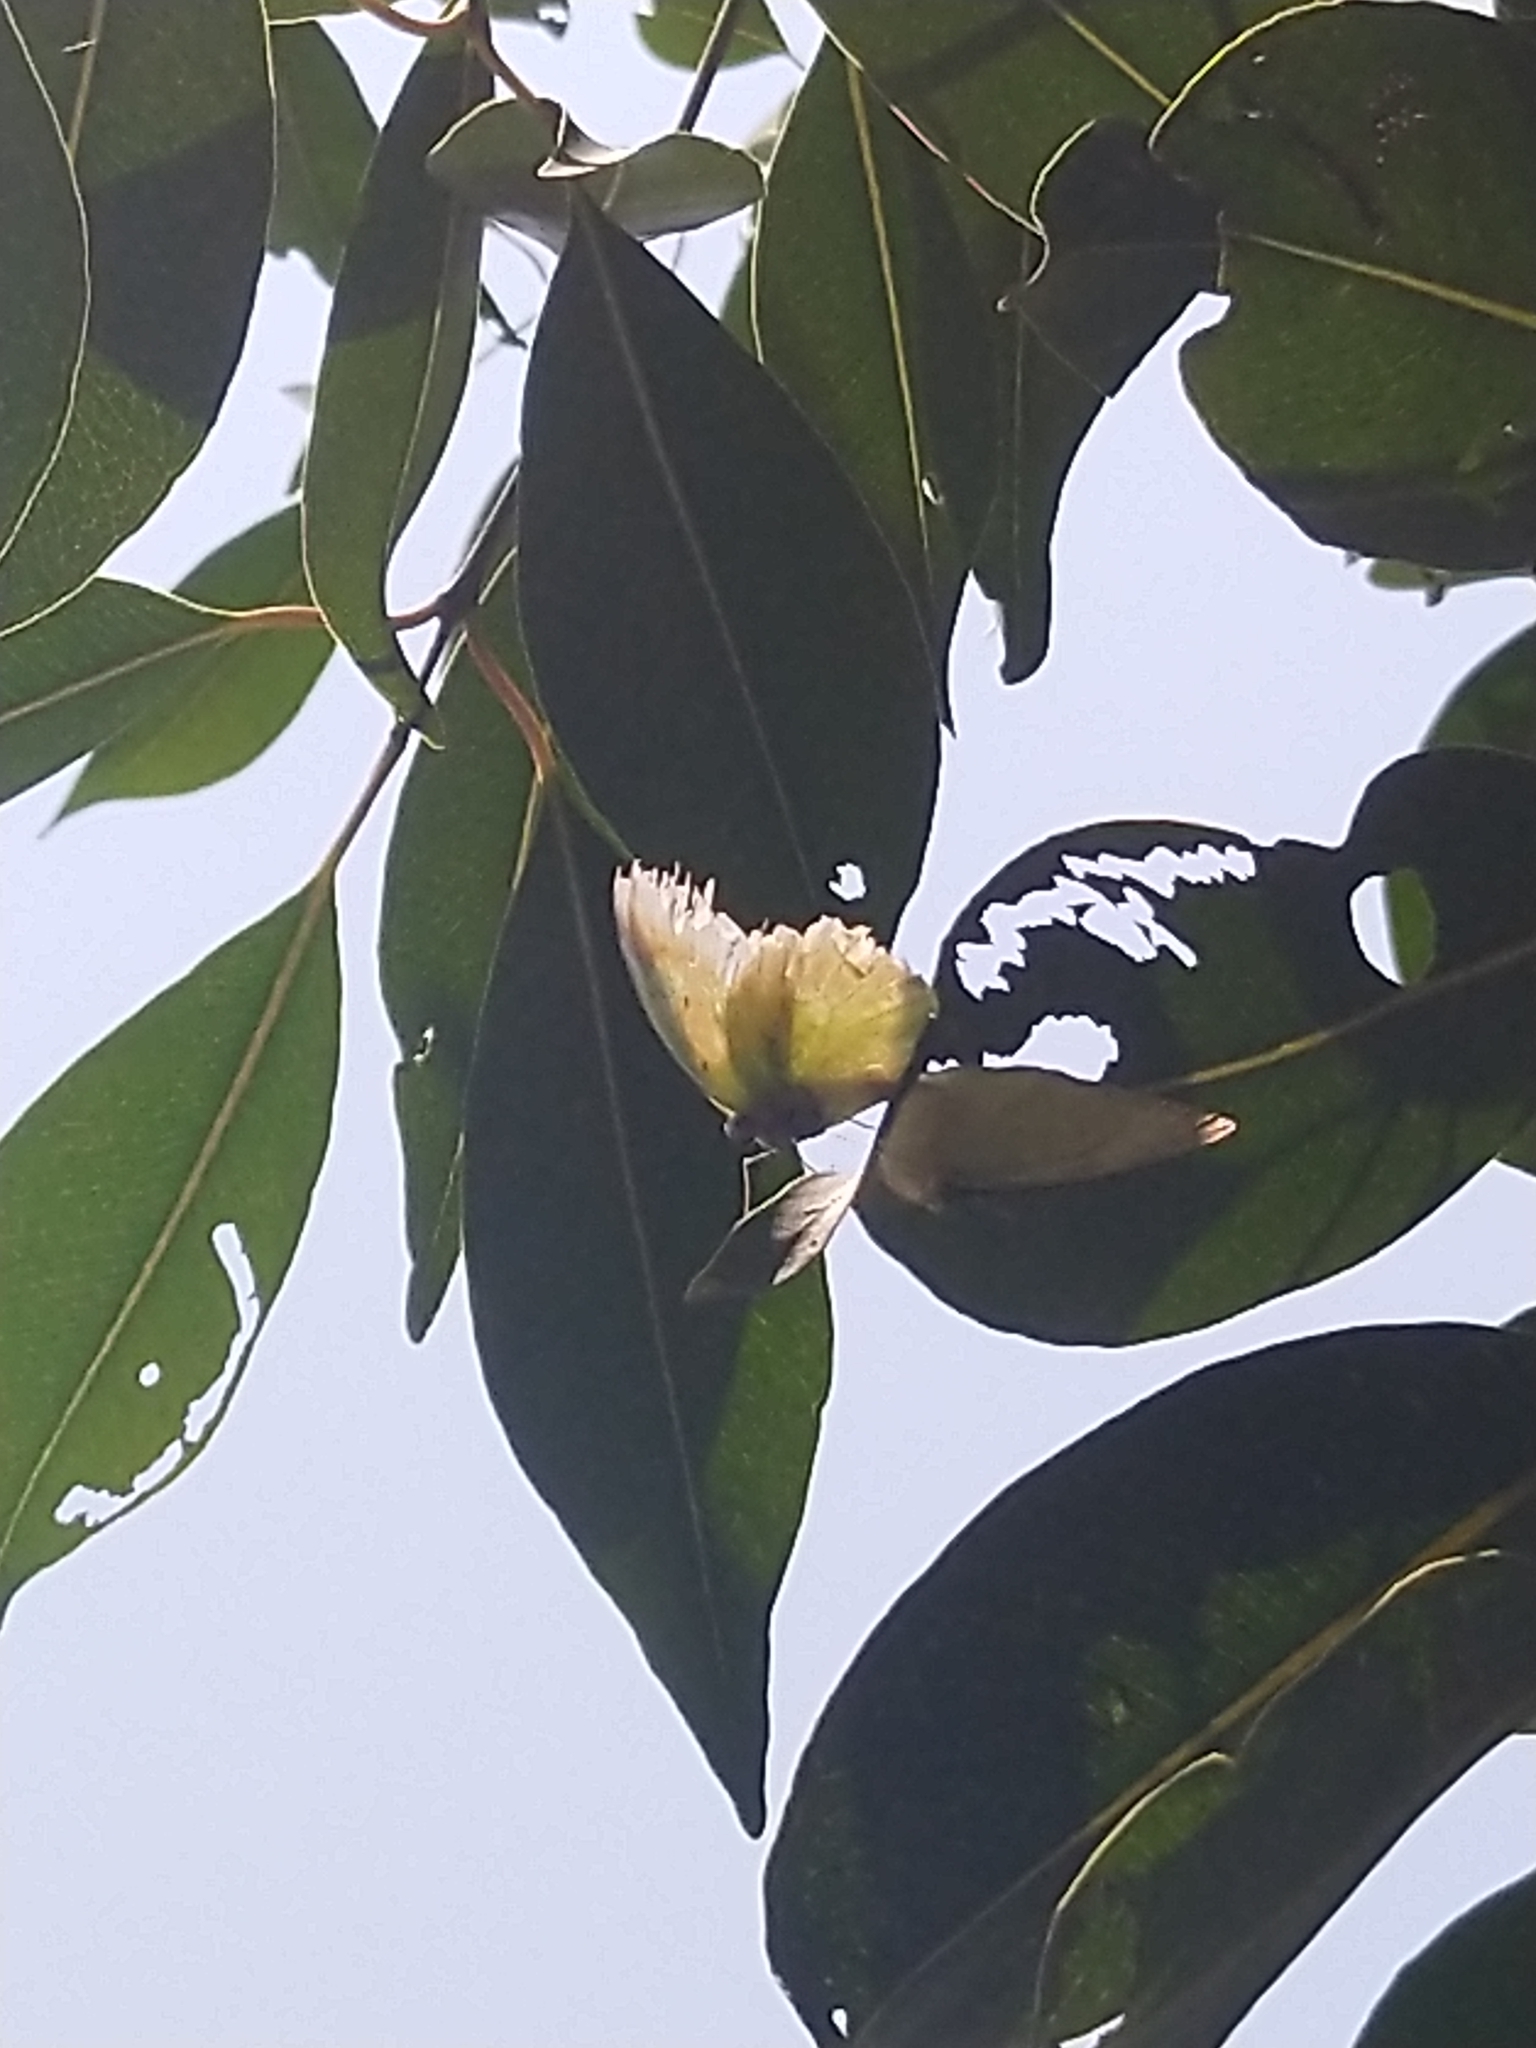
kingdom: Animalia
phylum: Arthropoda
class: Insecta
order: Lepidoptera
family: Pieridae
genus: Catopsilia
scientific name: Catopsilia
